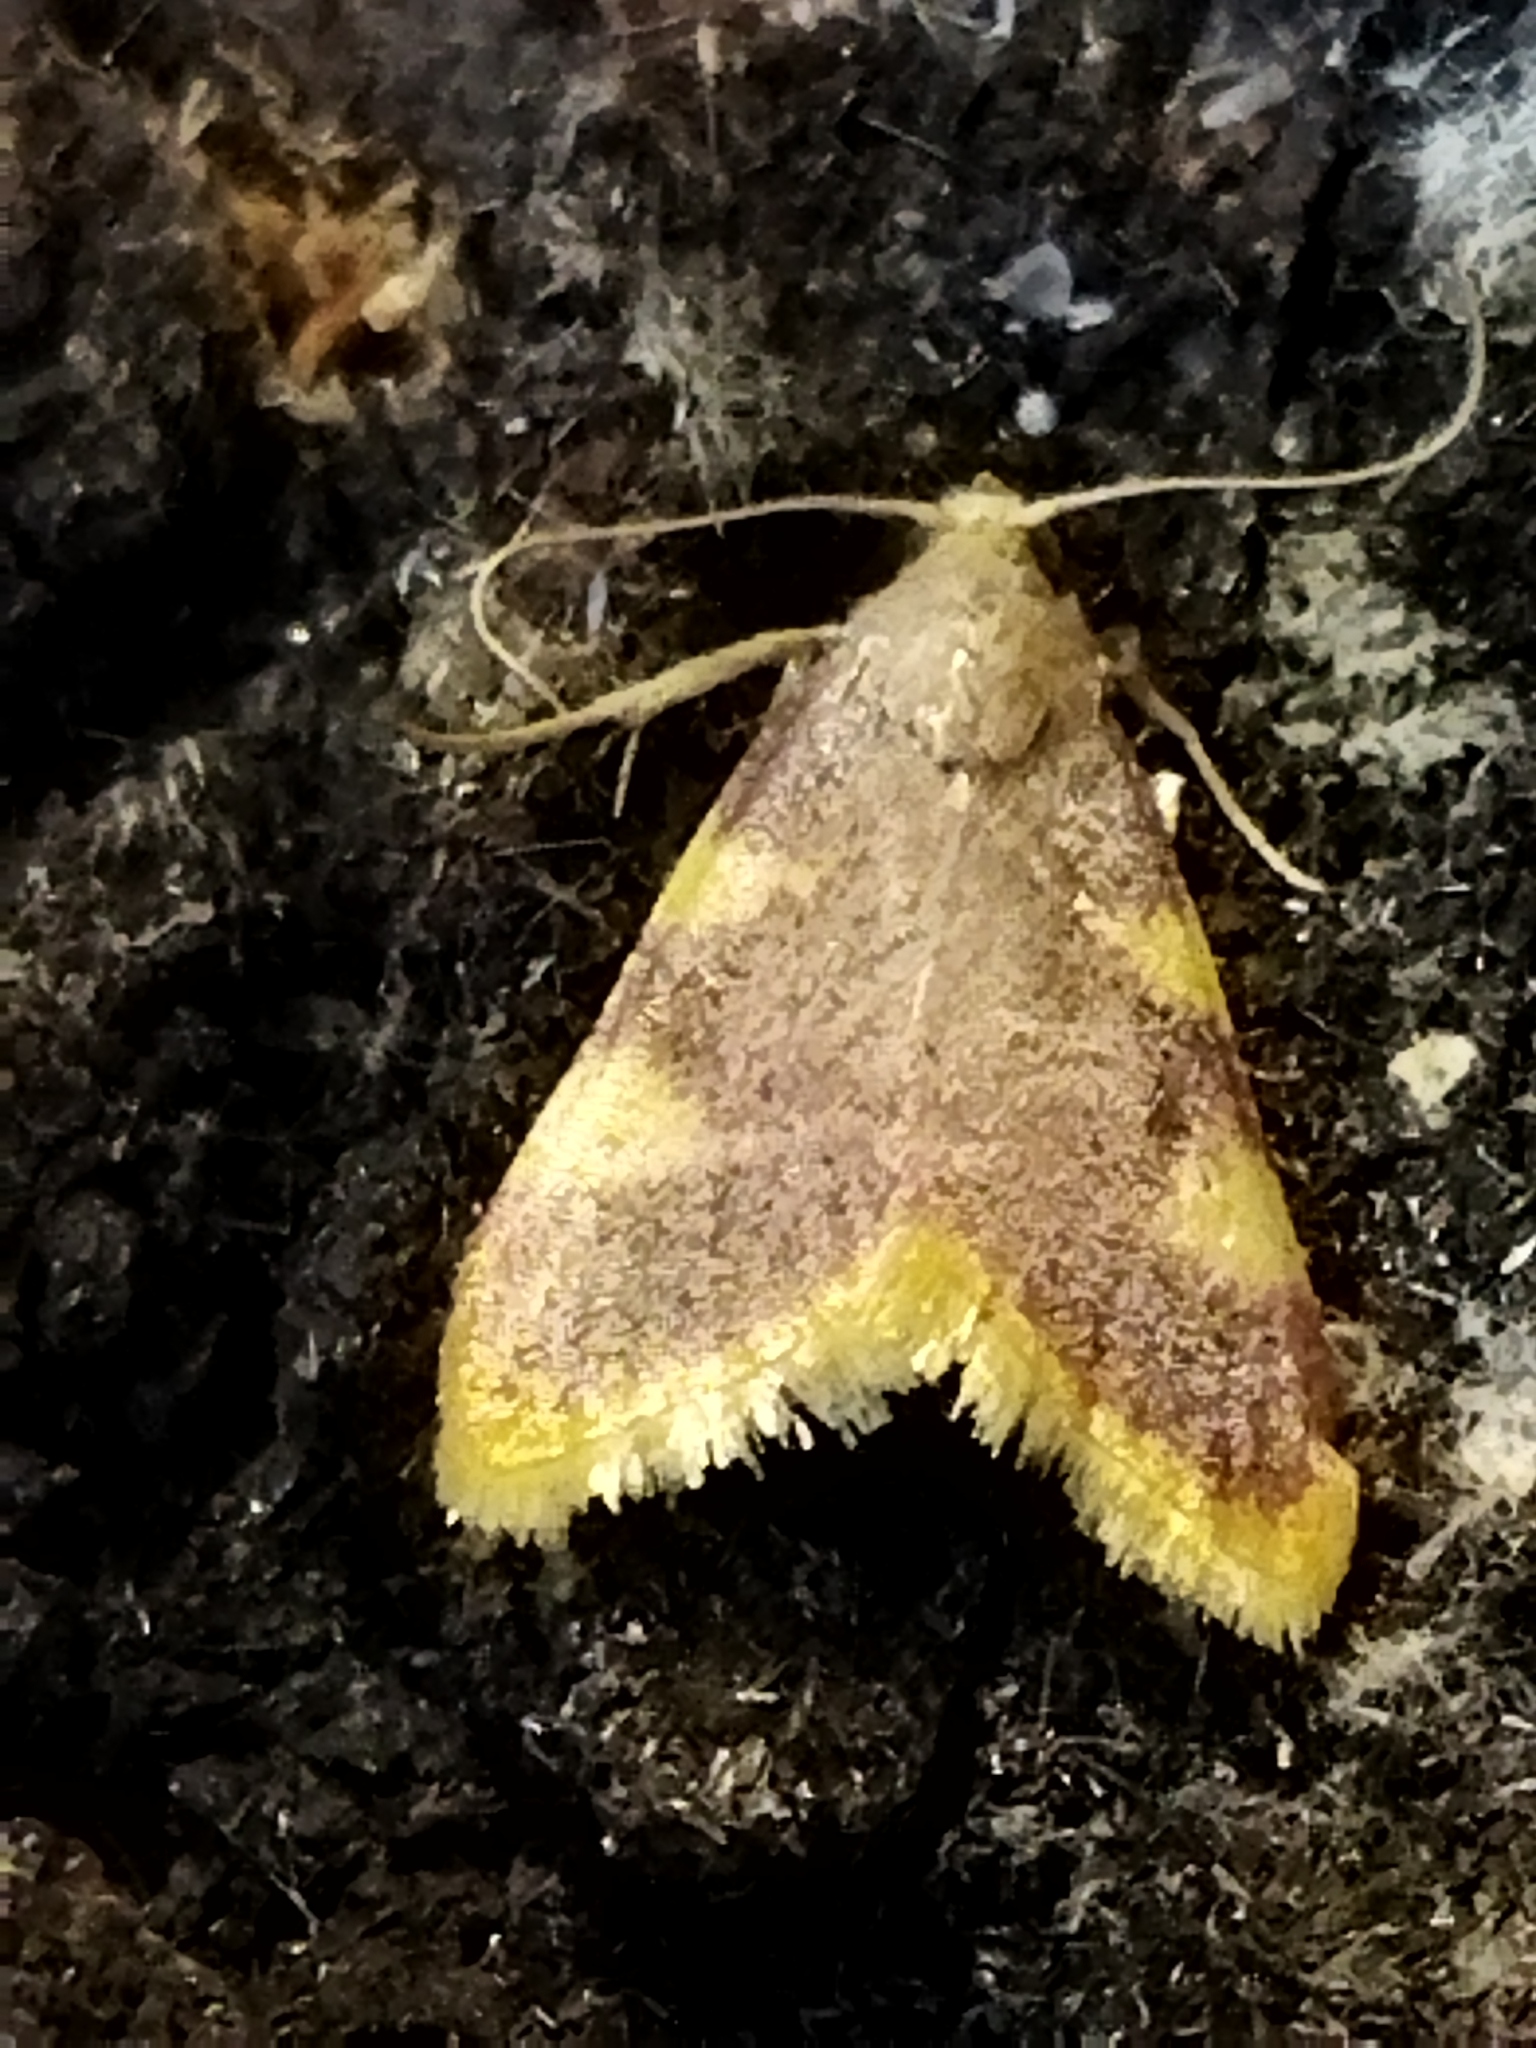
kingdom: Animalia
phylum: Arthropoda
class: Insecta
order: Lepidoptera
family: Pyralidae
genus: Hypsopygia
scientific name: Hypsopygia costalis
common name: Gold triangle
